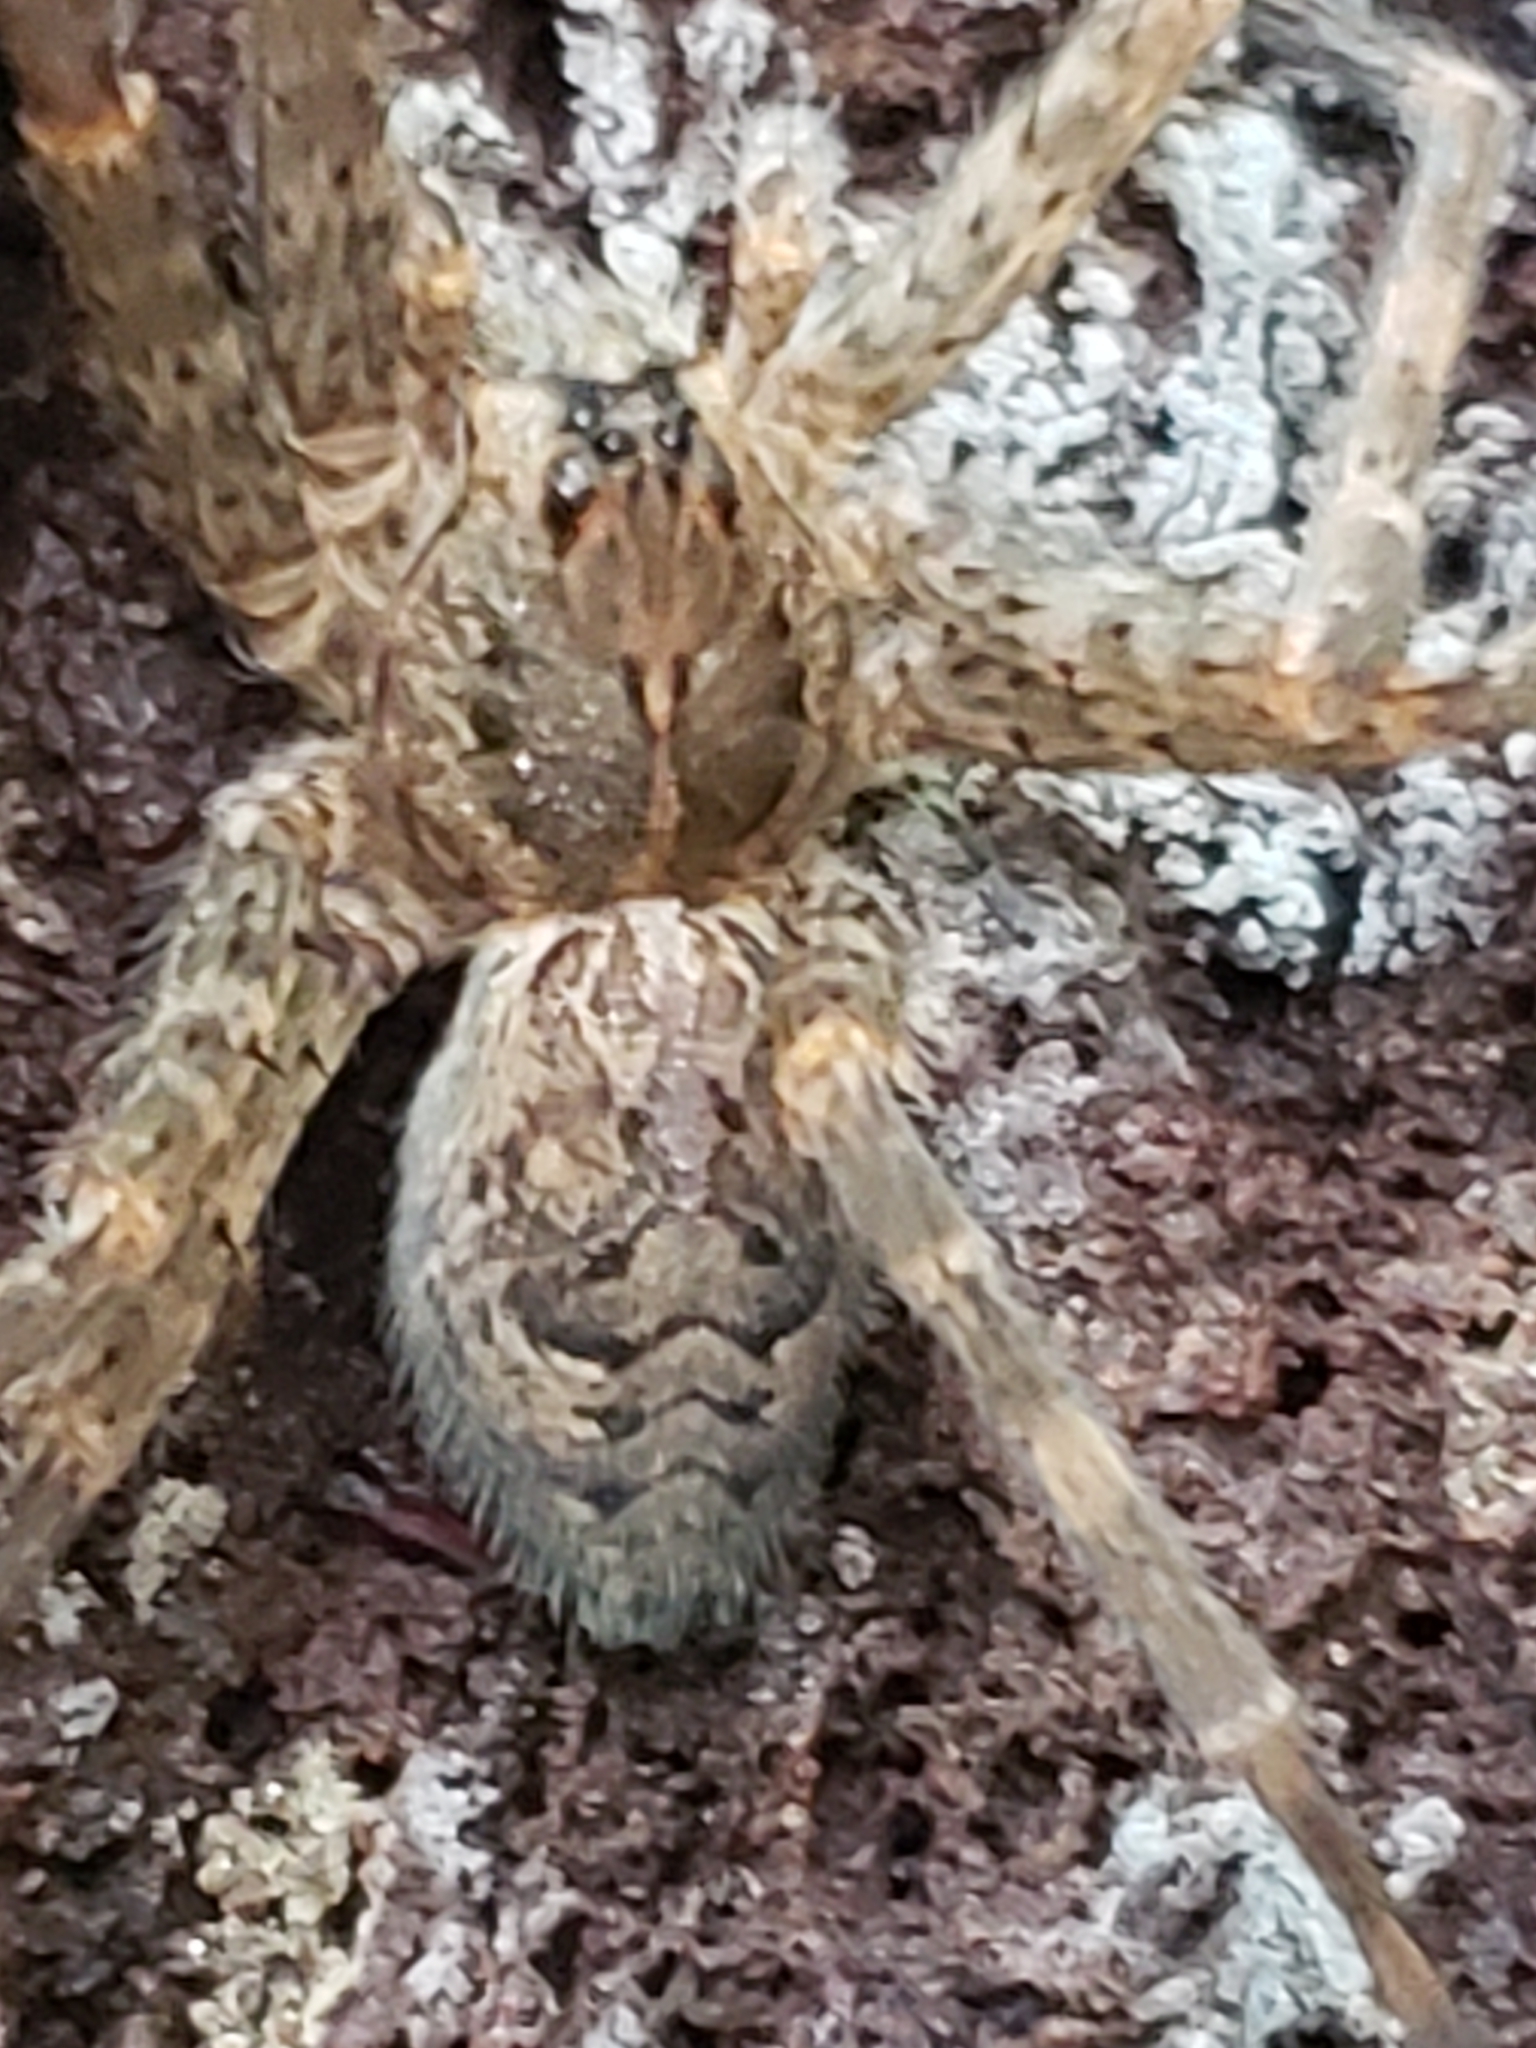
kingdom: Animalia
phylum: Arthropoda
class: Arachnida
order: Araneae
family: Pisauridae
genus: Dolomedes
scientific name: Dolomedes tenebrosus
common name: Dark fishing spider
